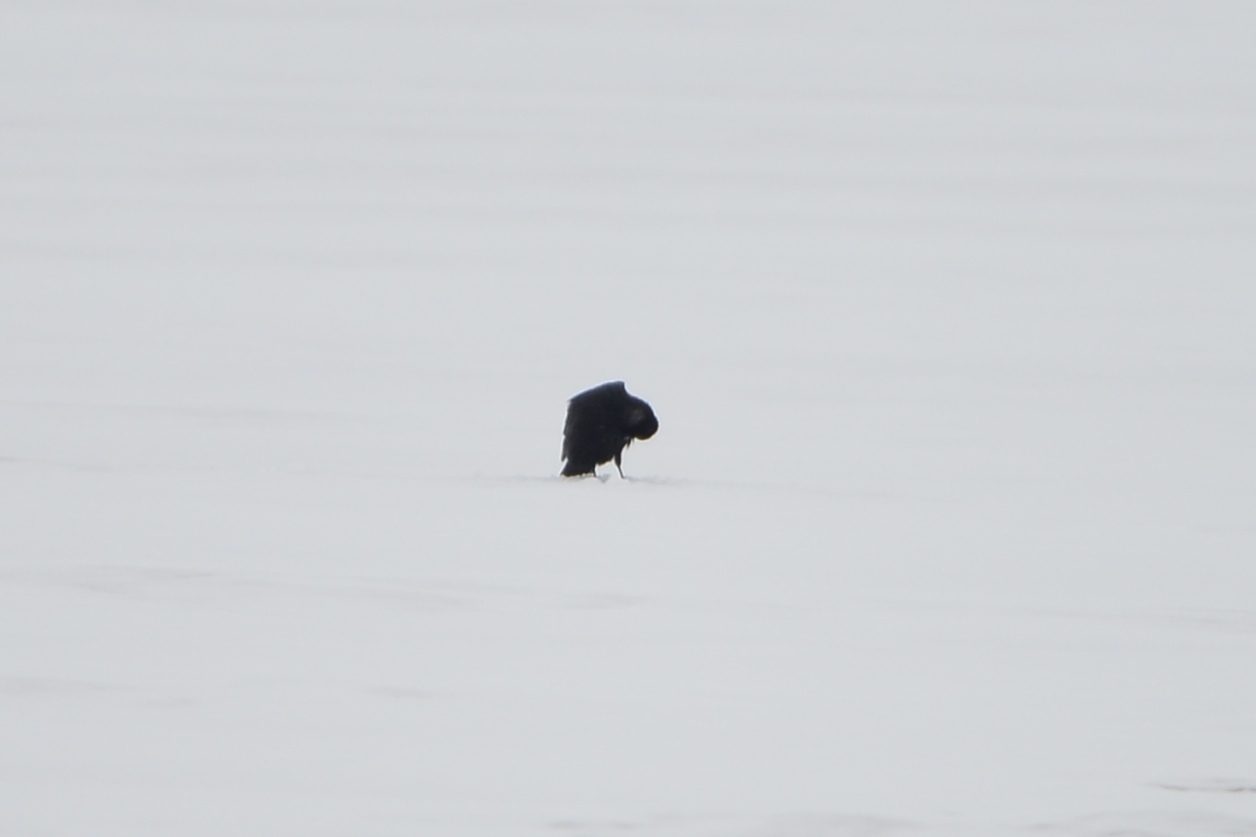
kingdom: Animalia
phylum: Chordata
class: Aves
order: Passeriformes
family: Corvidae
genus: Corvus
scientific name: Corvus corone
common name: Carrion crow
